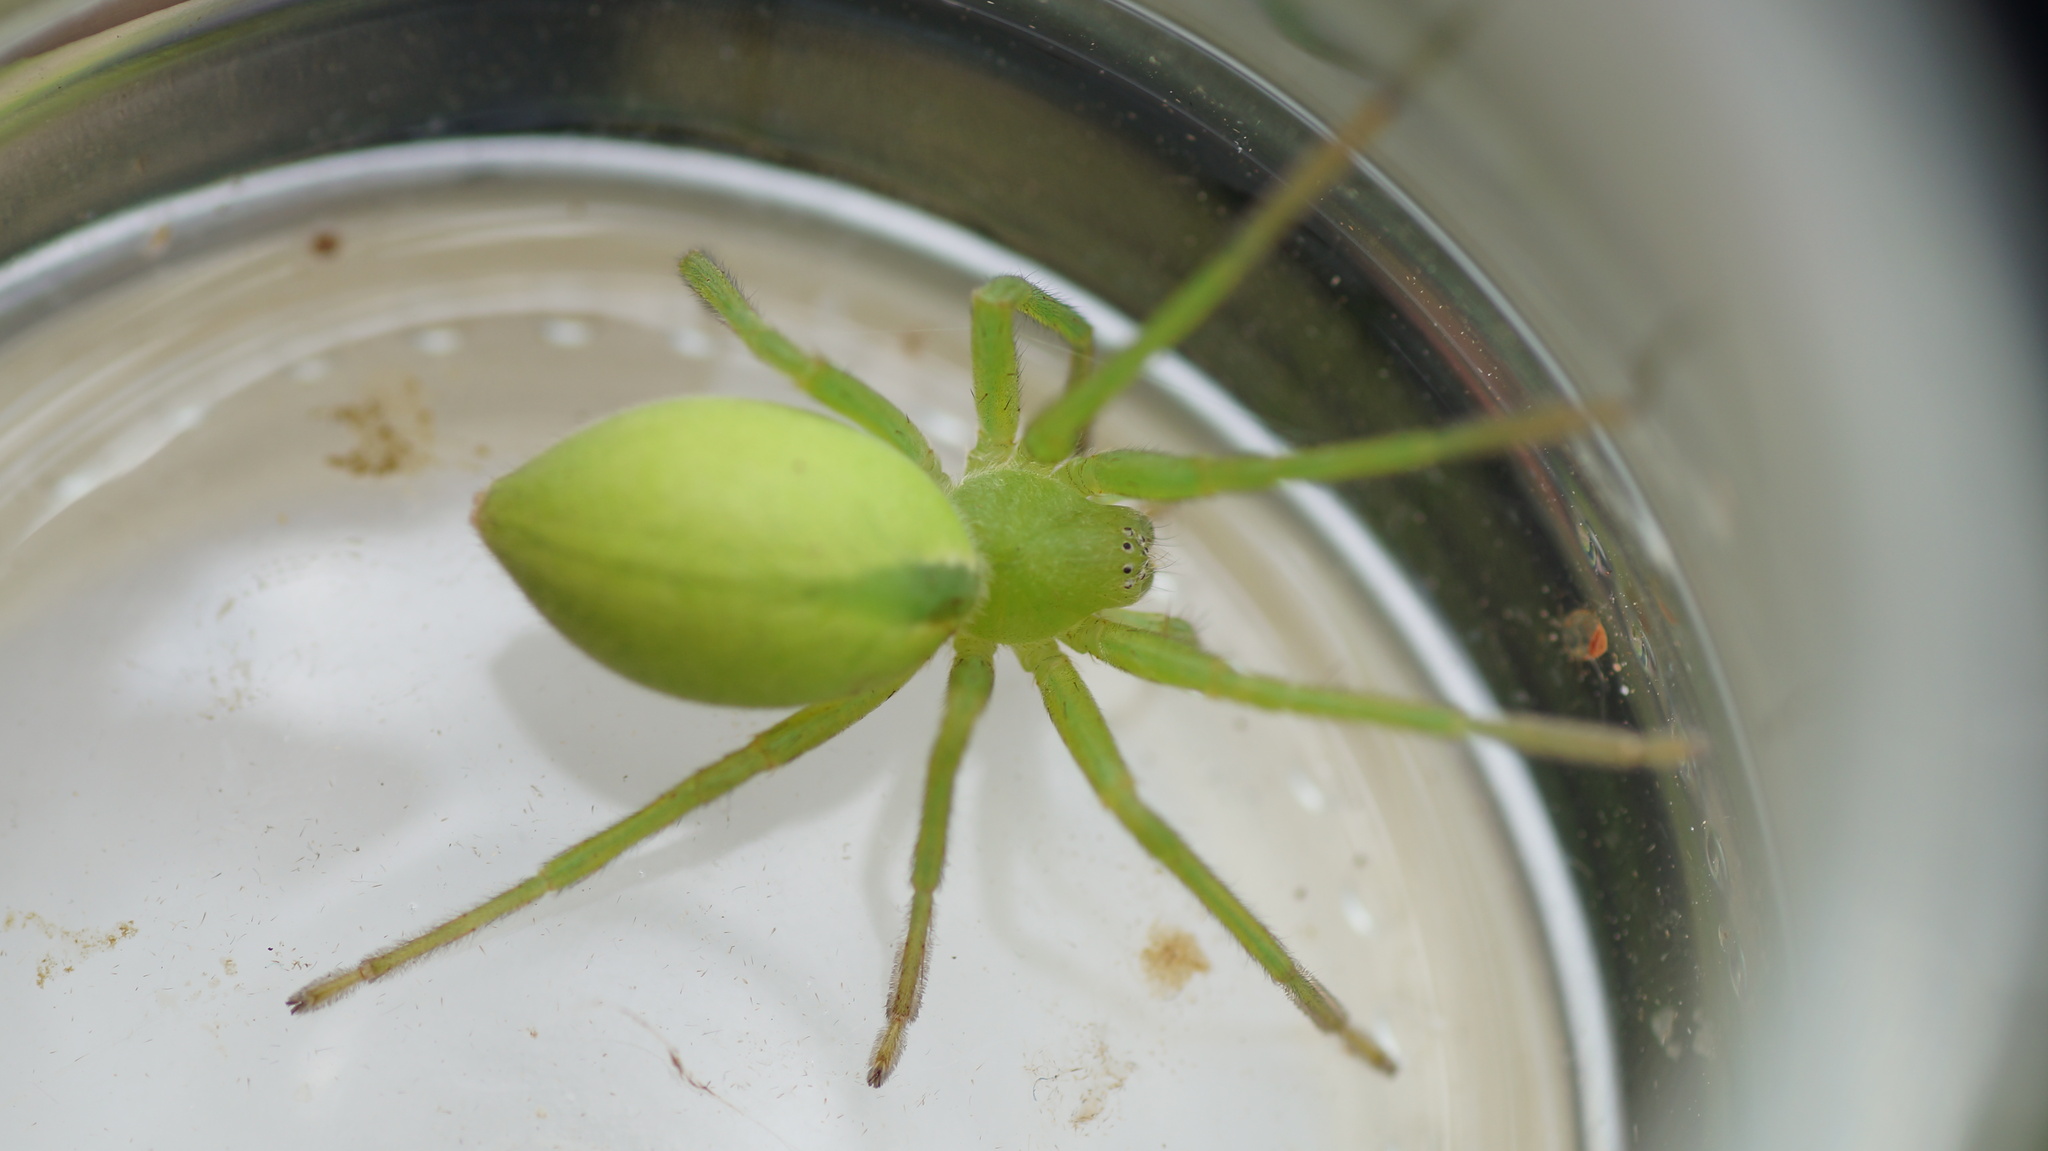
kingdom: Animalia
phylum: Arthropoda
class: Arachnida
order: Araneae
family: Sparassidae
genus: Micrommata
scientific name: Micrommata virescens
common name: Green spider
